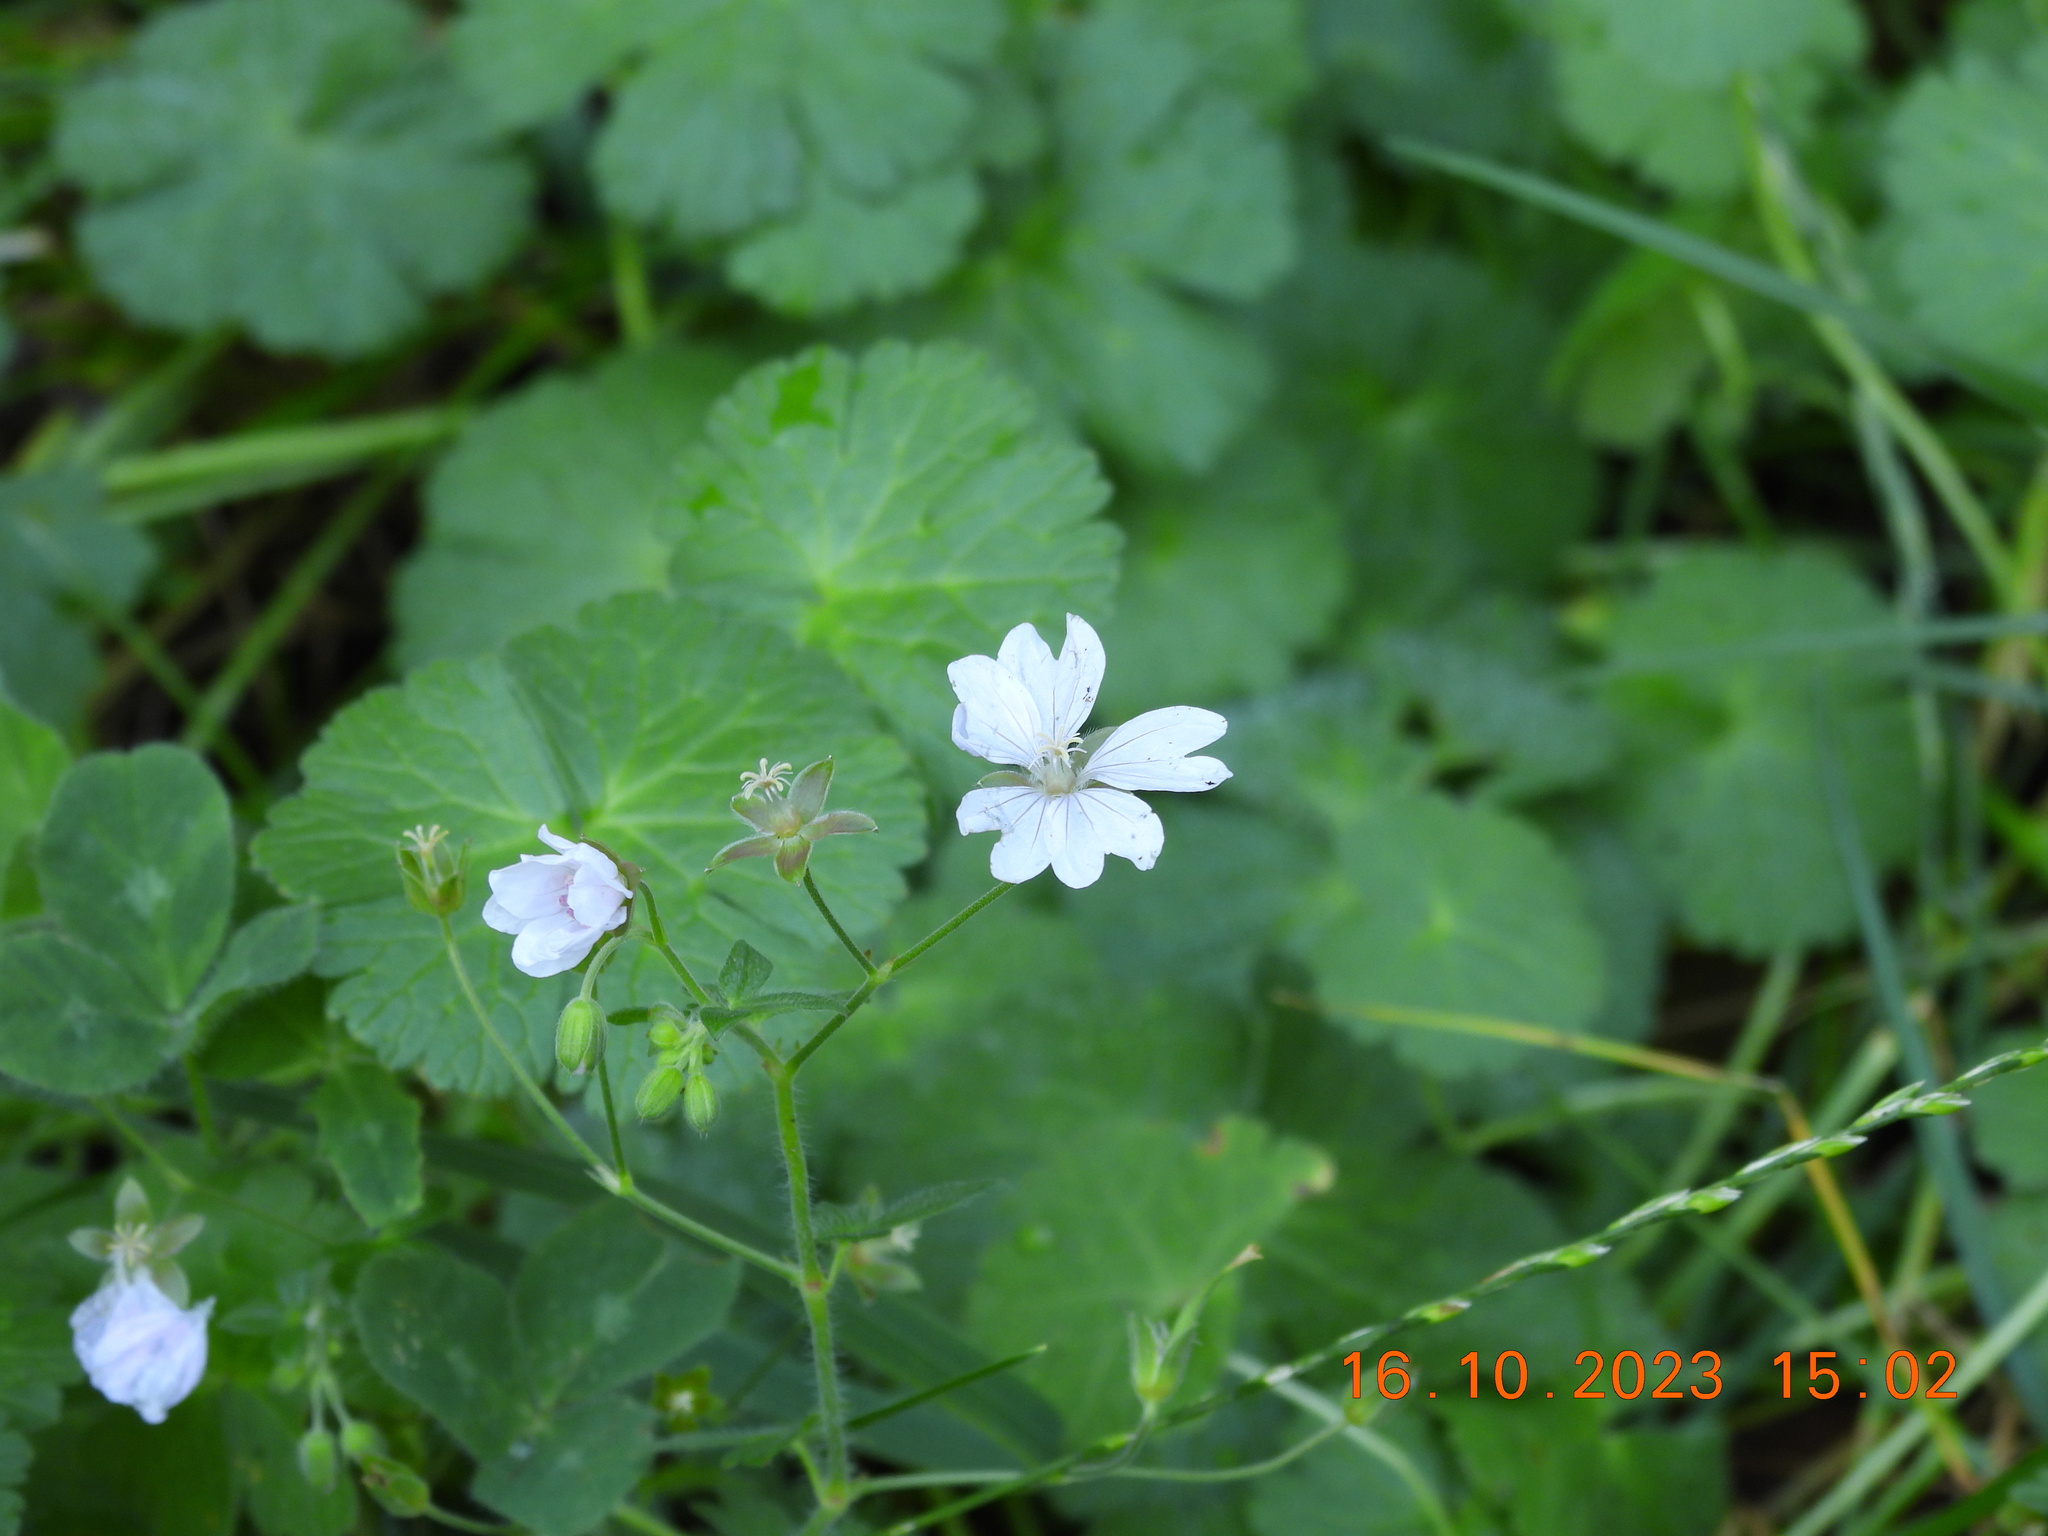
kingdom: Plantae
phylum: Tracheophyta
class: Magnoliopsida
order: Geraniales
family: Geraniaceae
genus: Geranium
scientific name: Geranium pyrenaicum
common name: Hedgerow crane's-bill
